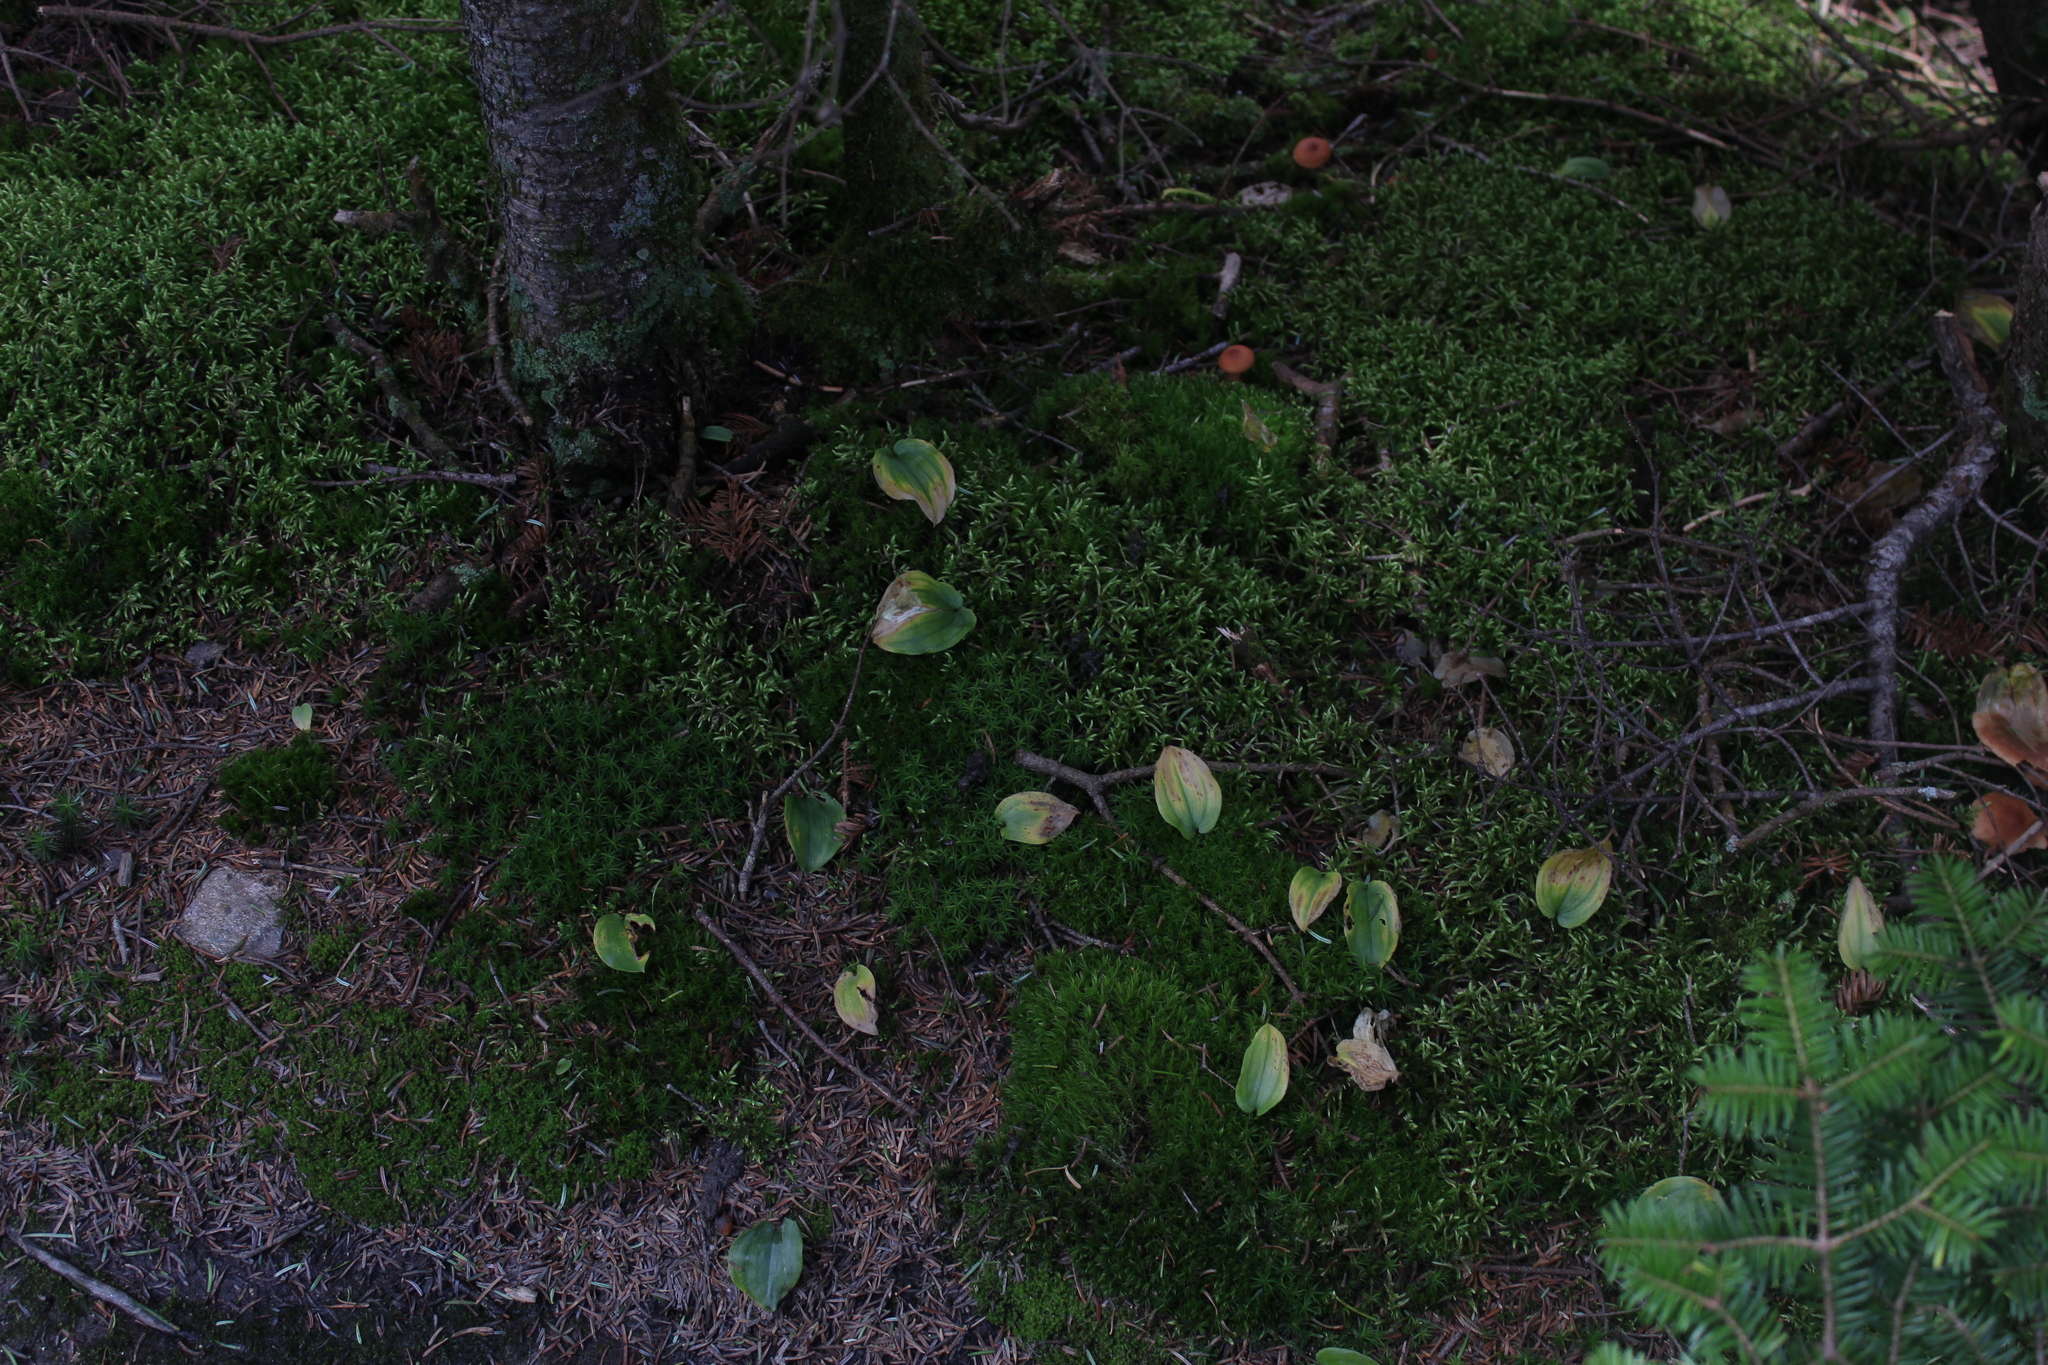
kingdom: Plantae
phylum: Tracheophyta
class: Liliopsida
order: Asparagales
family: Asparagaceae
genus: Maianthemum
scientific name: Maianthemum canadense
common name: False lily-of-the-valley
